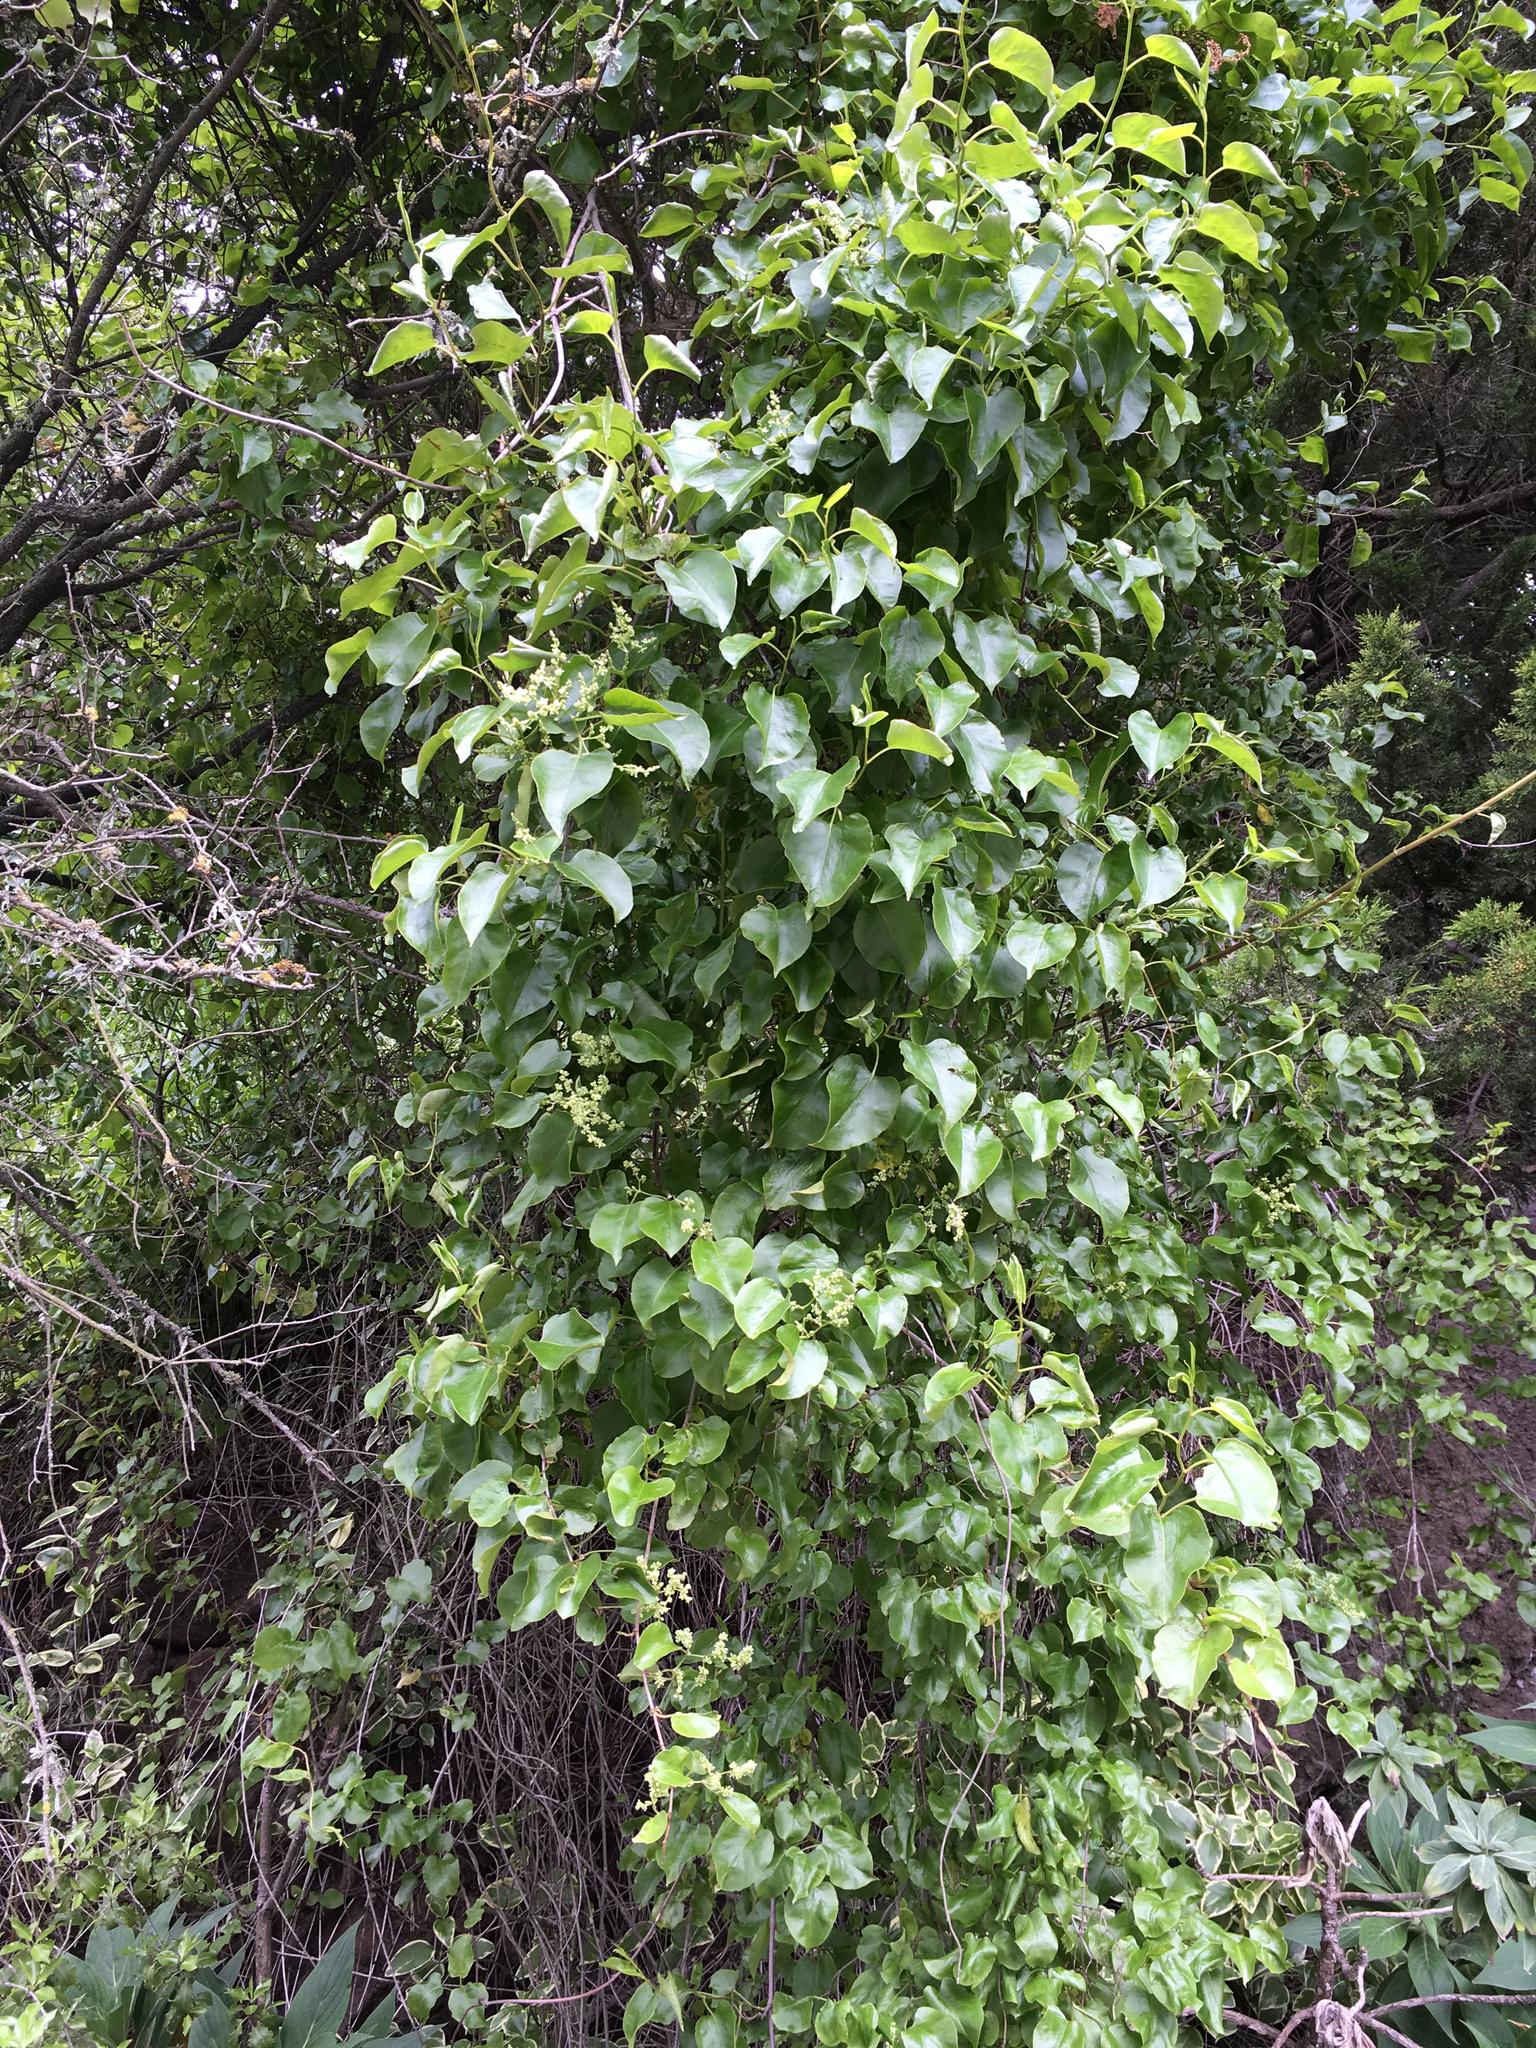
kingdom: Plantae
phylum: Tracheophyta
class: Magnoliopsida
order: Caryophyllales
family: Polygonaceae
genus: Muehlenbeckia
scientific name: Muehlenbeckia australis
